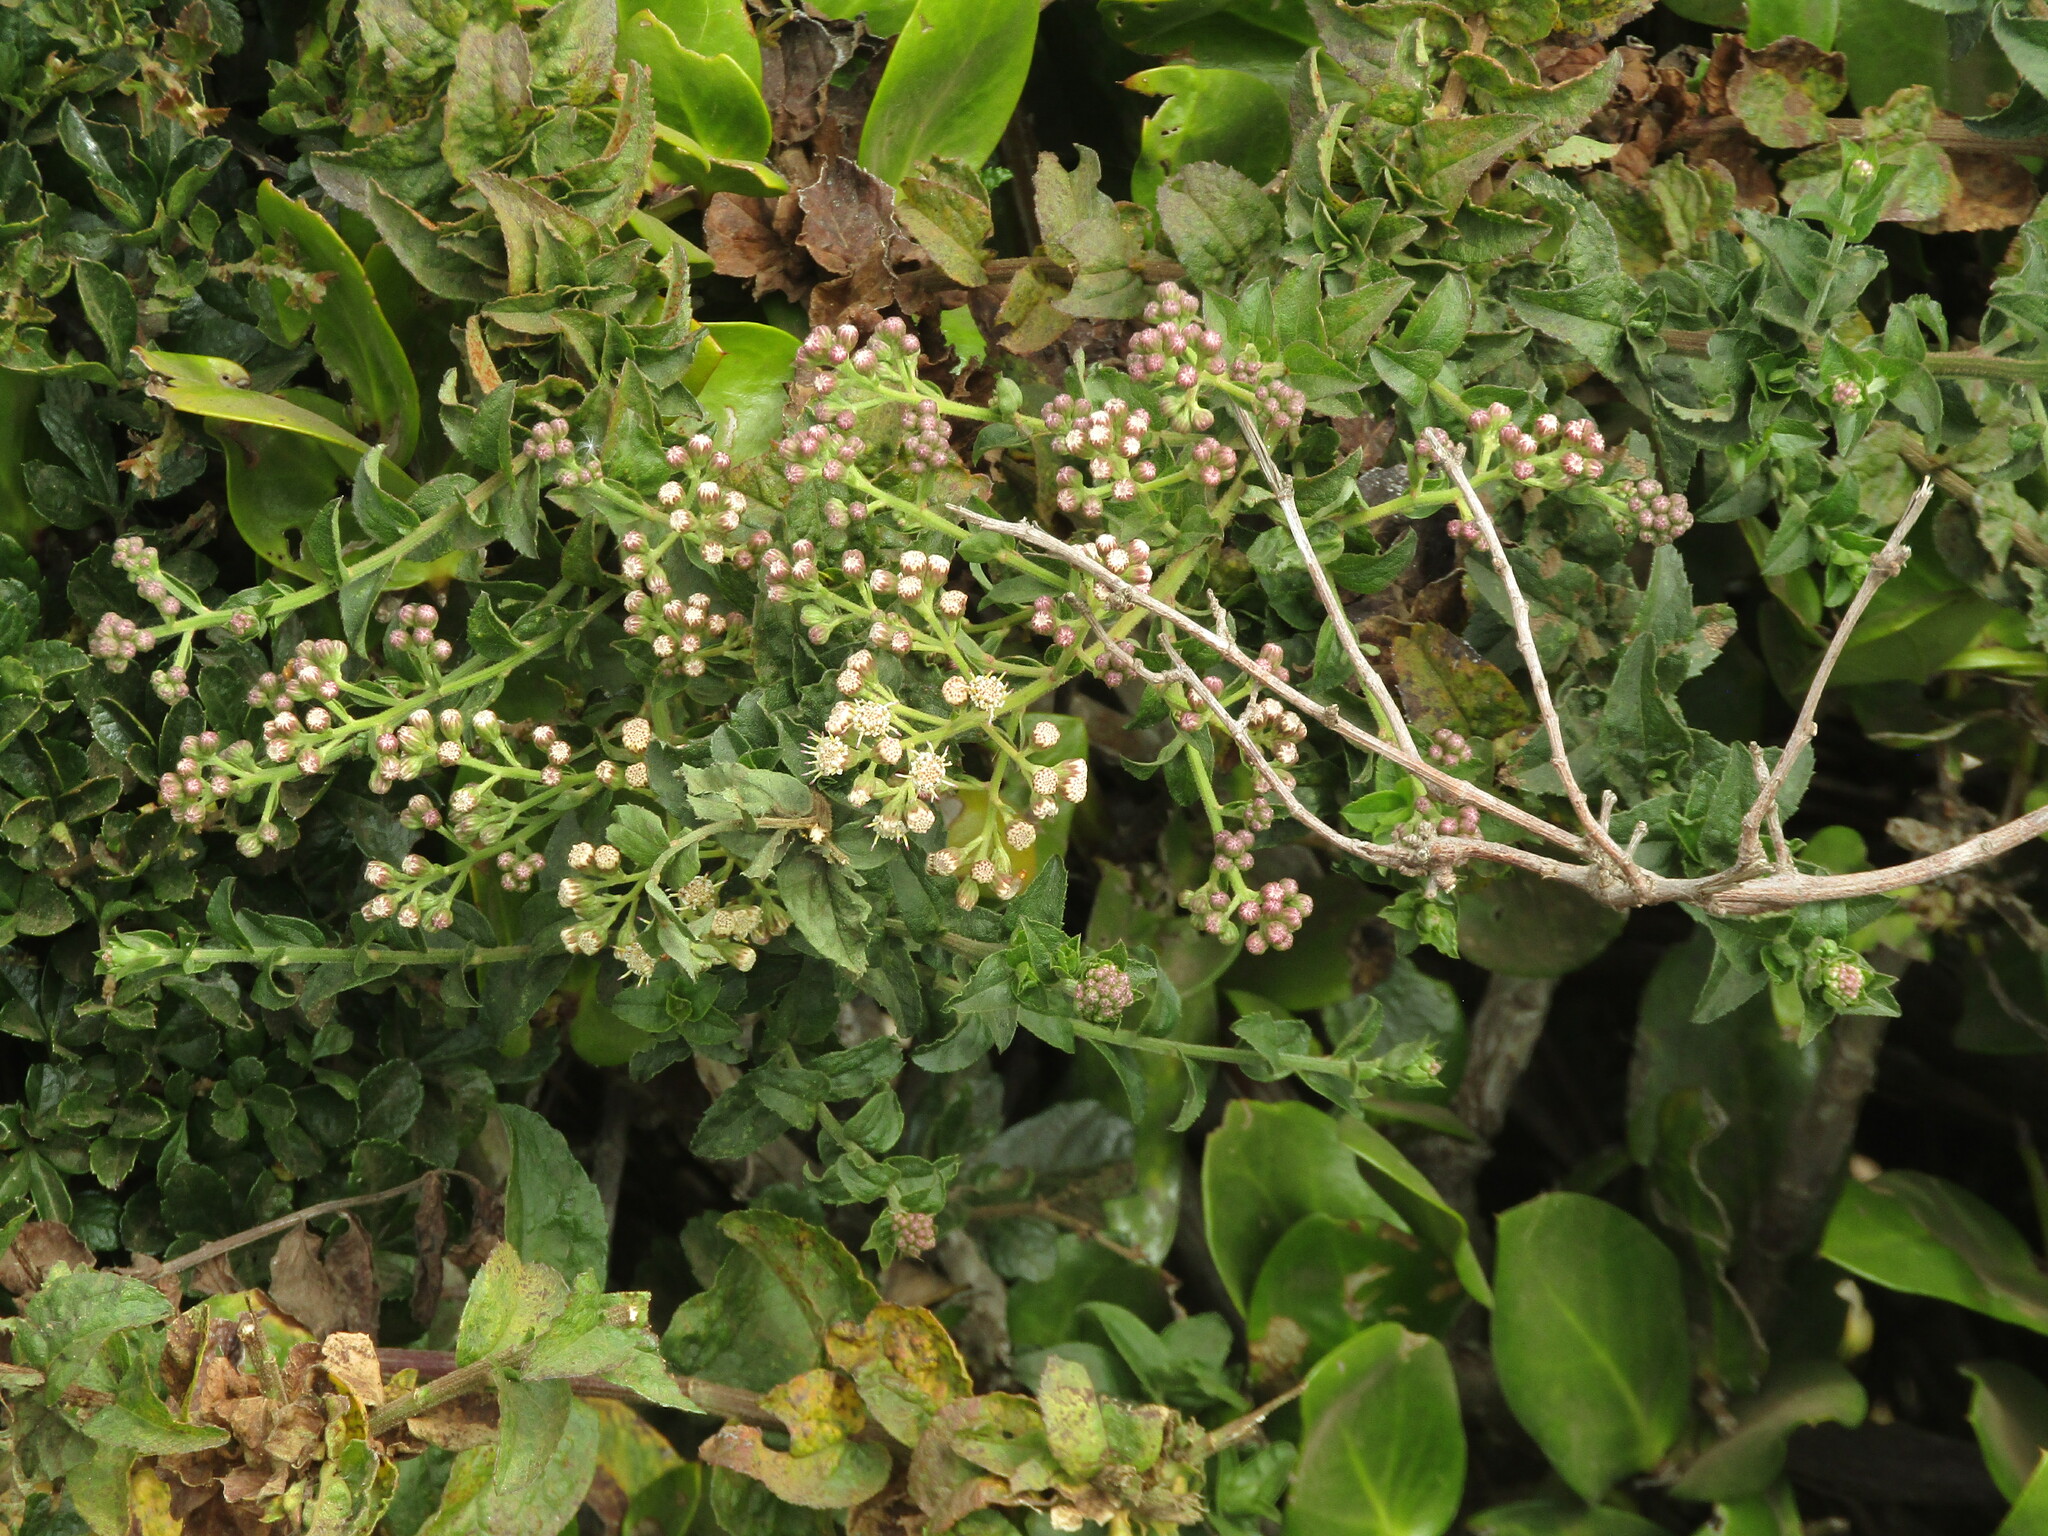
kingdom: Plantae
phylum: Tracheophyta
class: Magnoliopsida
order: Asterales
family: Asteraceae
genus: Baccharis
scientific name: Baccharis racemosa
